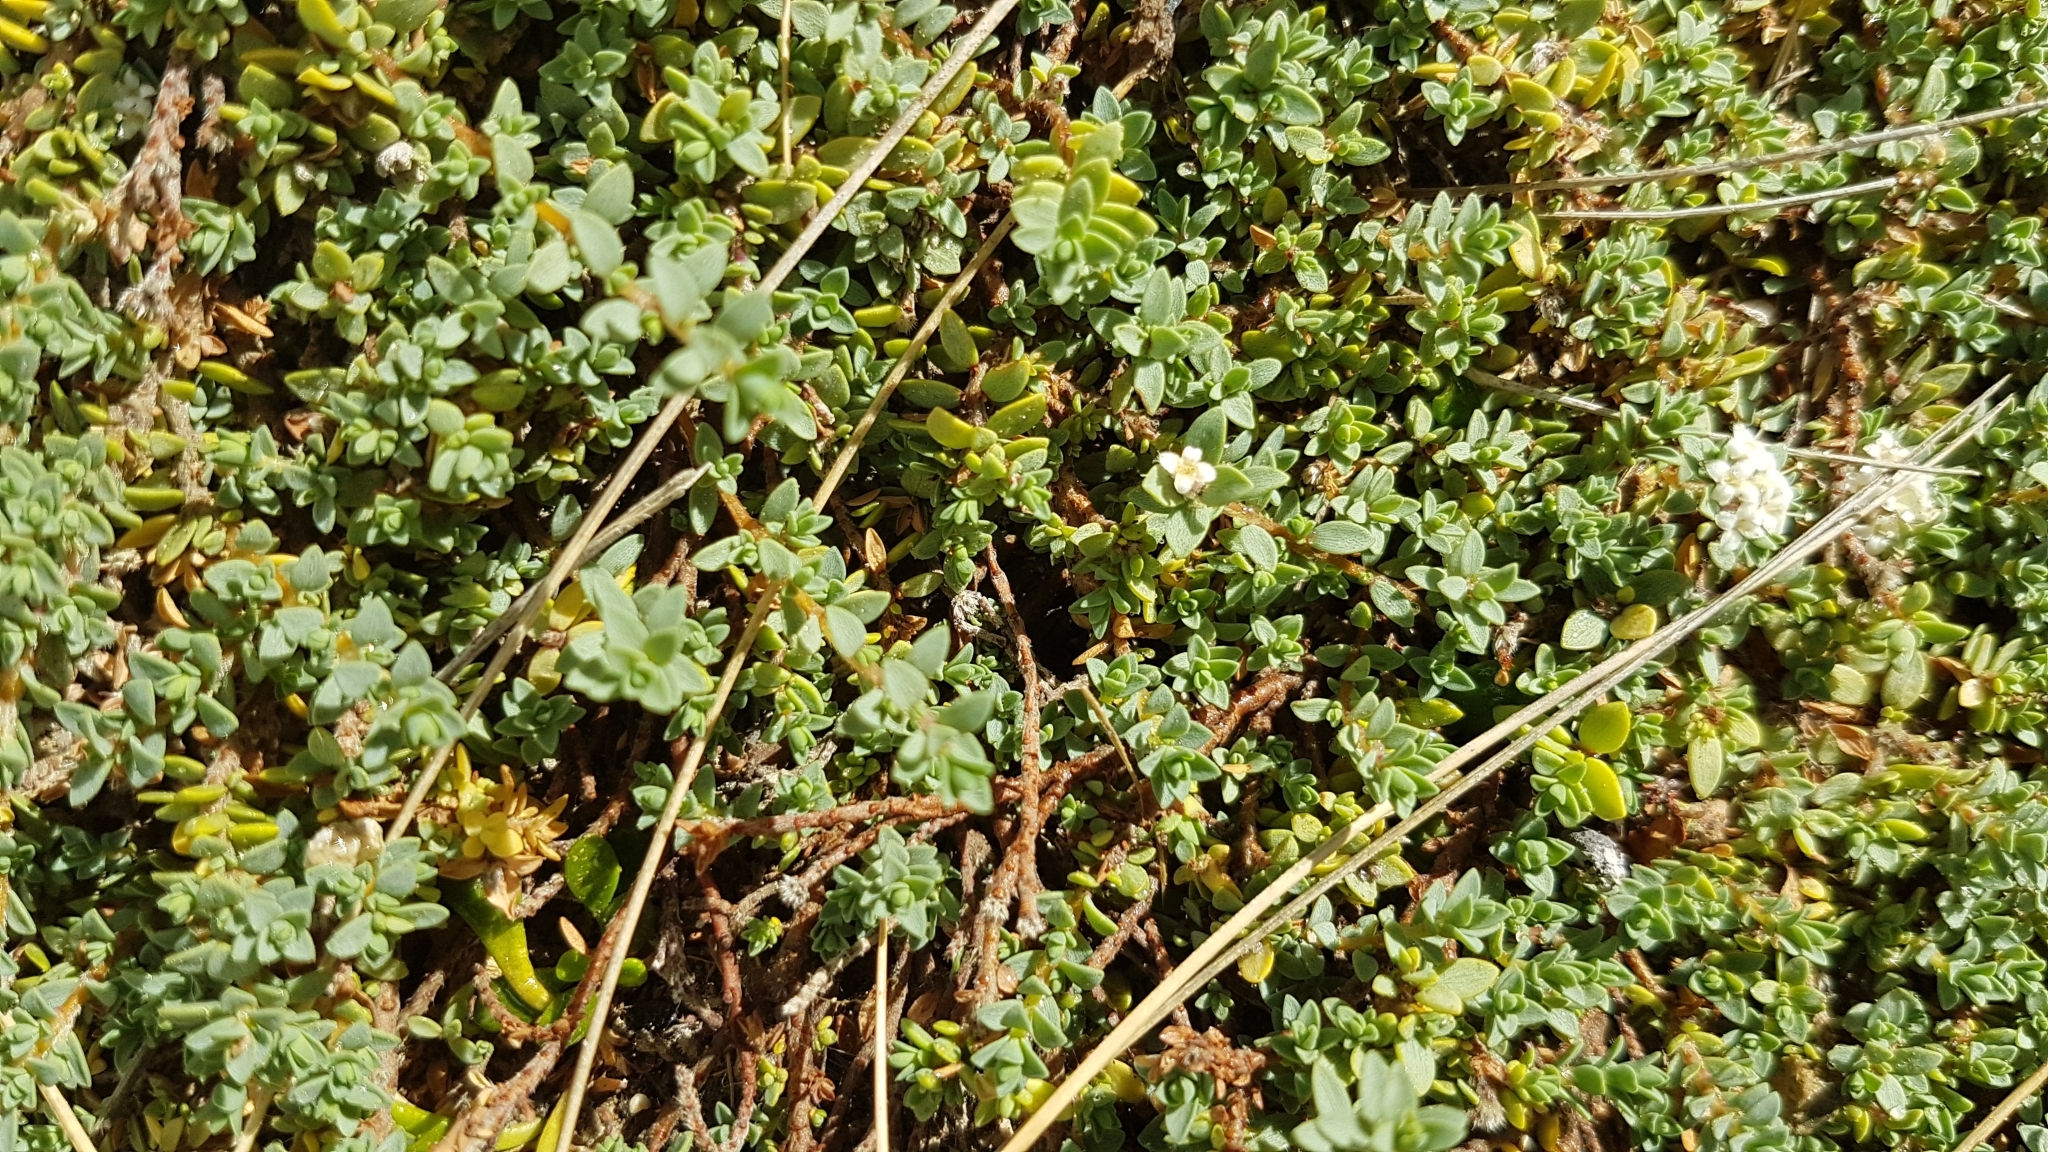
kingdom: Plantae
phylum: Tracheophyta
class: Magnoliopsida
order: Malvales
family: Thymelaeaceae
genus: Pimelea
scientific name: Pimelea prostrata
